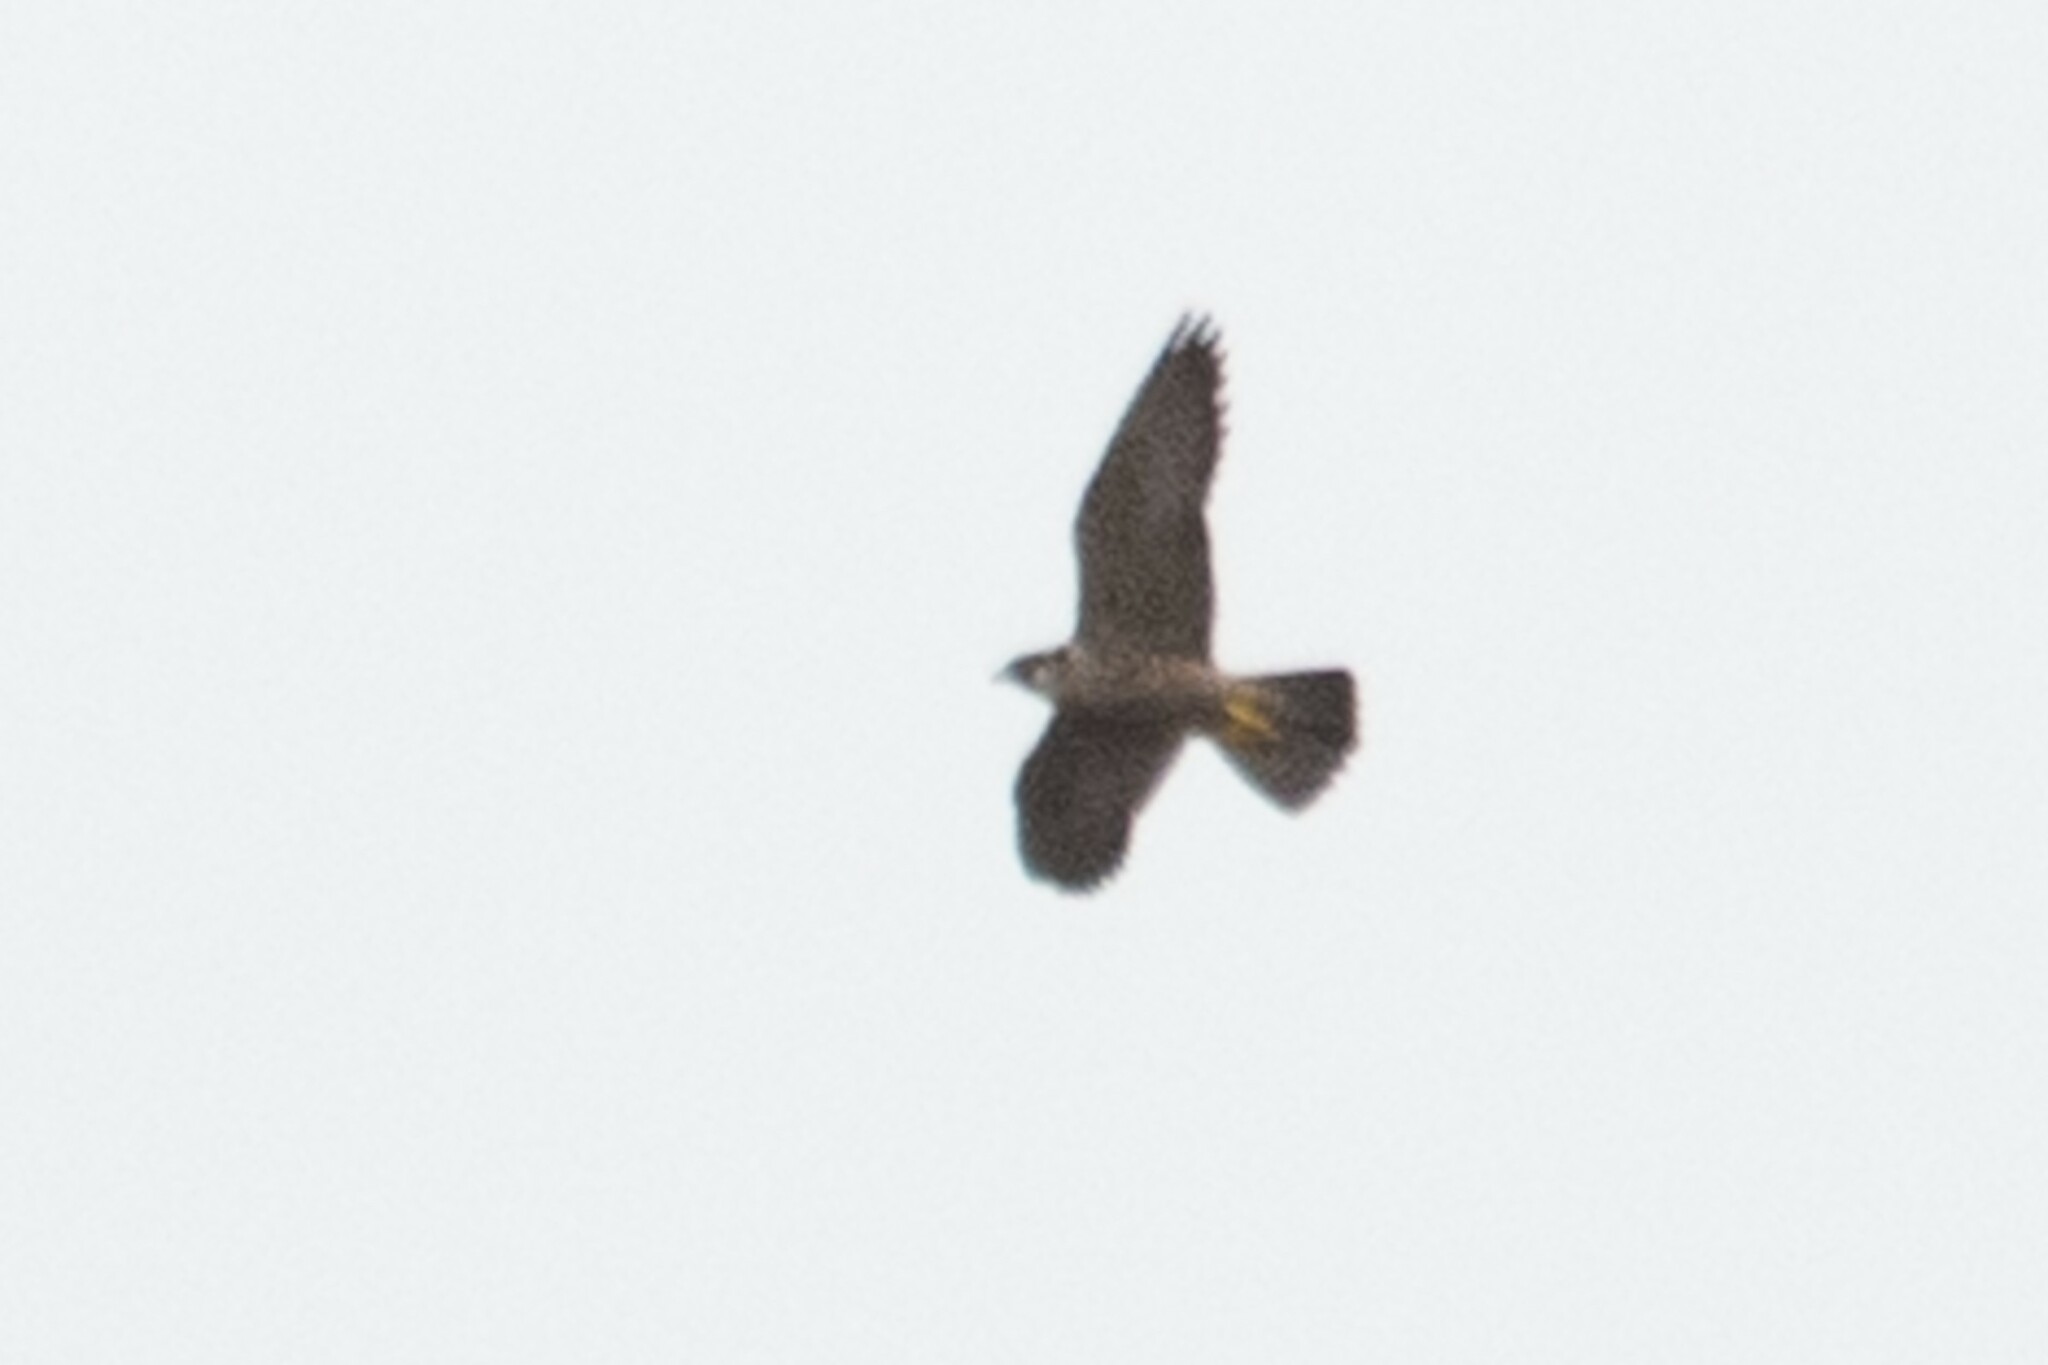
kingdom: Animalia
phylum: Chordata
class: Aves
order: Falconiformes
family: Falconidae
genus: Falco
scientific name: Falco peregrinus
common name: Peregrine falcon
